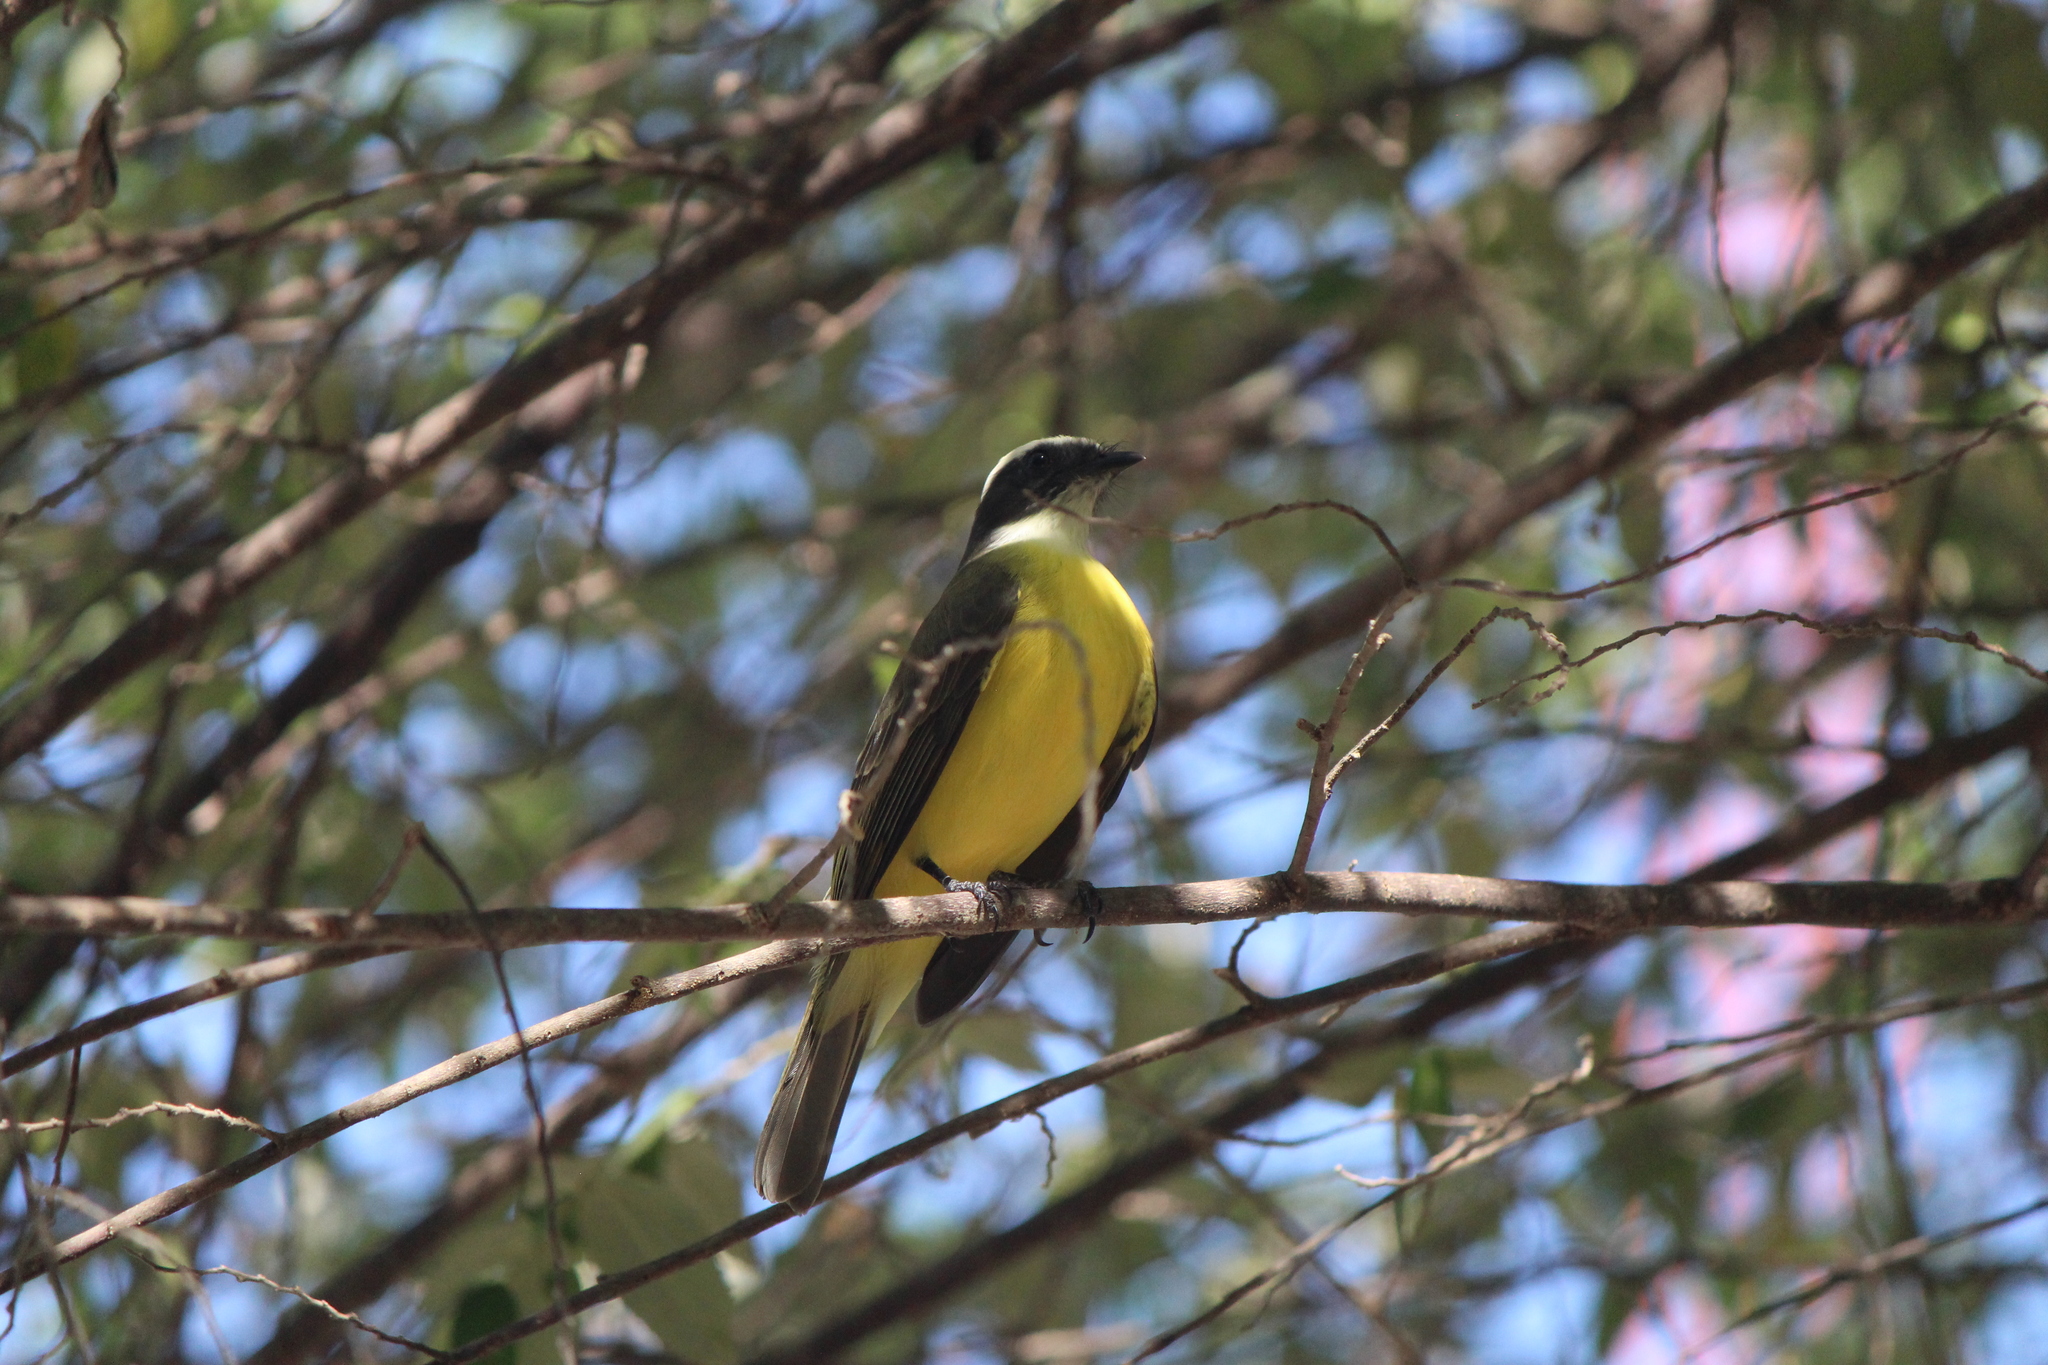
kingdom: Animalia
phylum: Chordata
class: Aves
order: Passeriformes
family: Tyrannidae
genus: Myiozetetes
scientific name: Myiozetetes similis
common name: Social flycatcher
